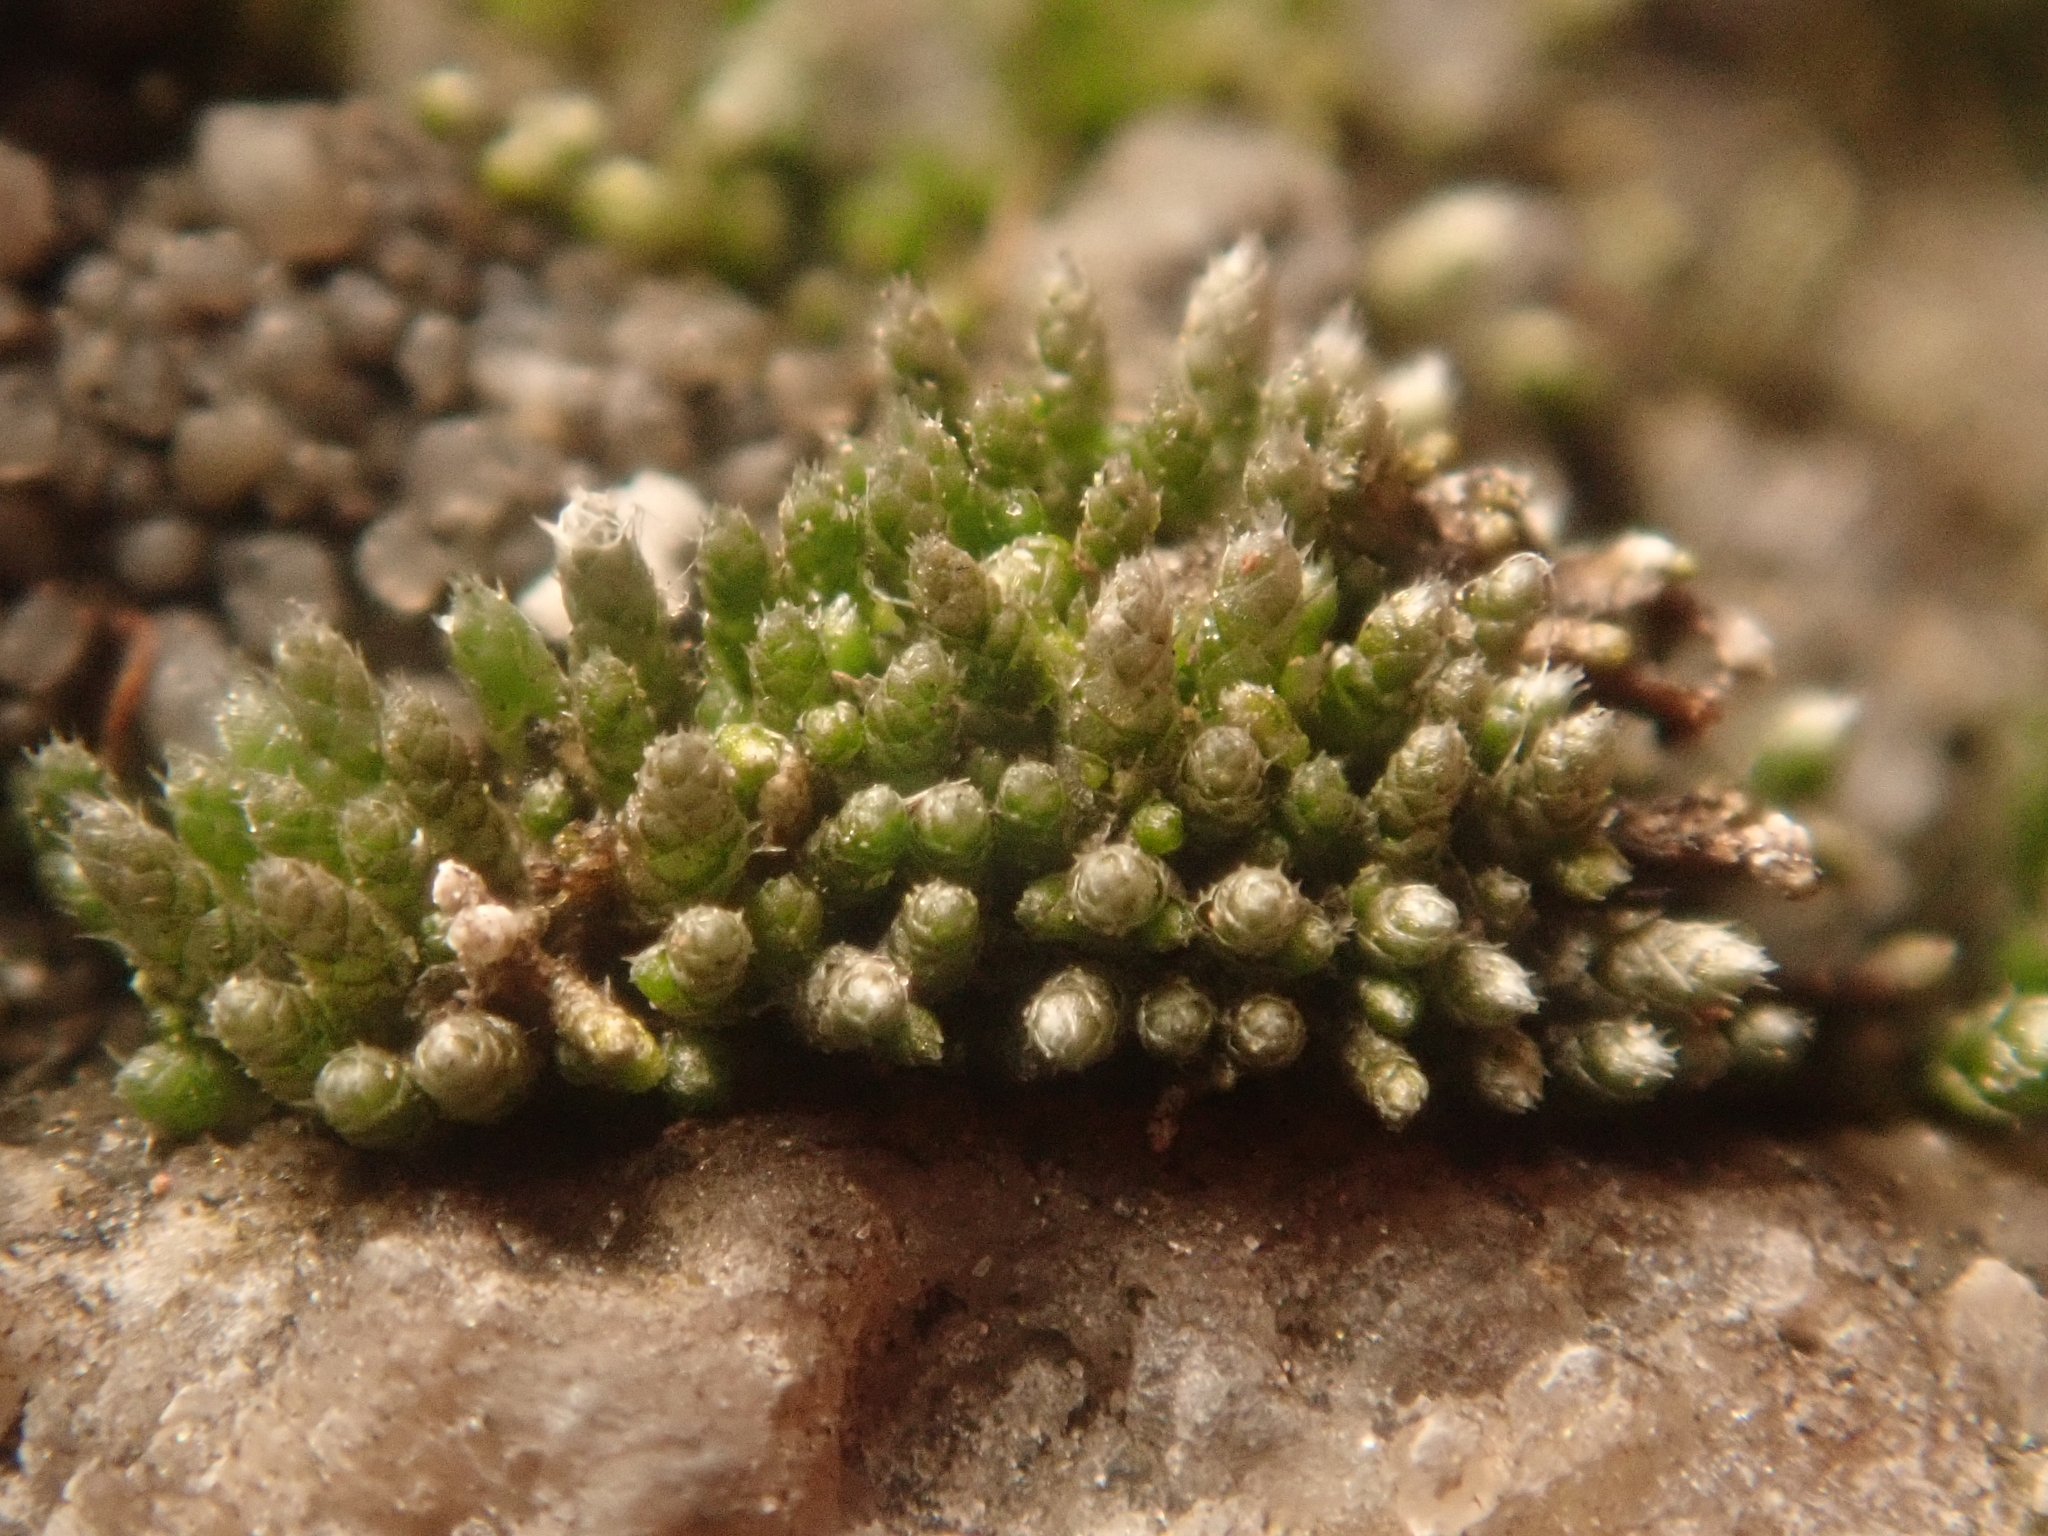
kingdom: Plantae
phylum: Bryophyta
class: Bryopsida
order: Bryales
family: Bryaceae
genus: Bryum
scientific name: Bryum argenteum
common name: Silver-moss
